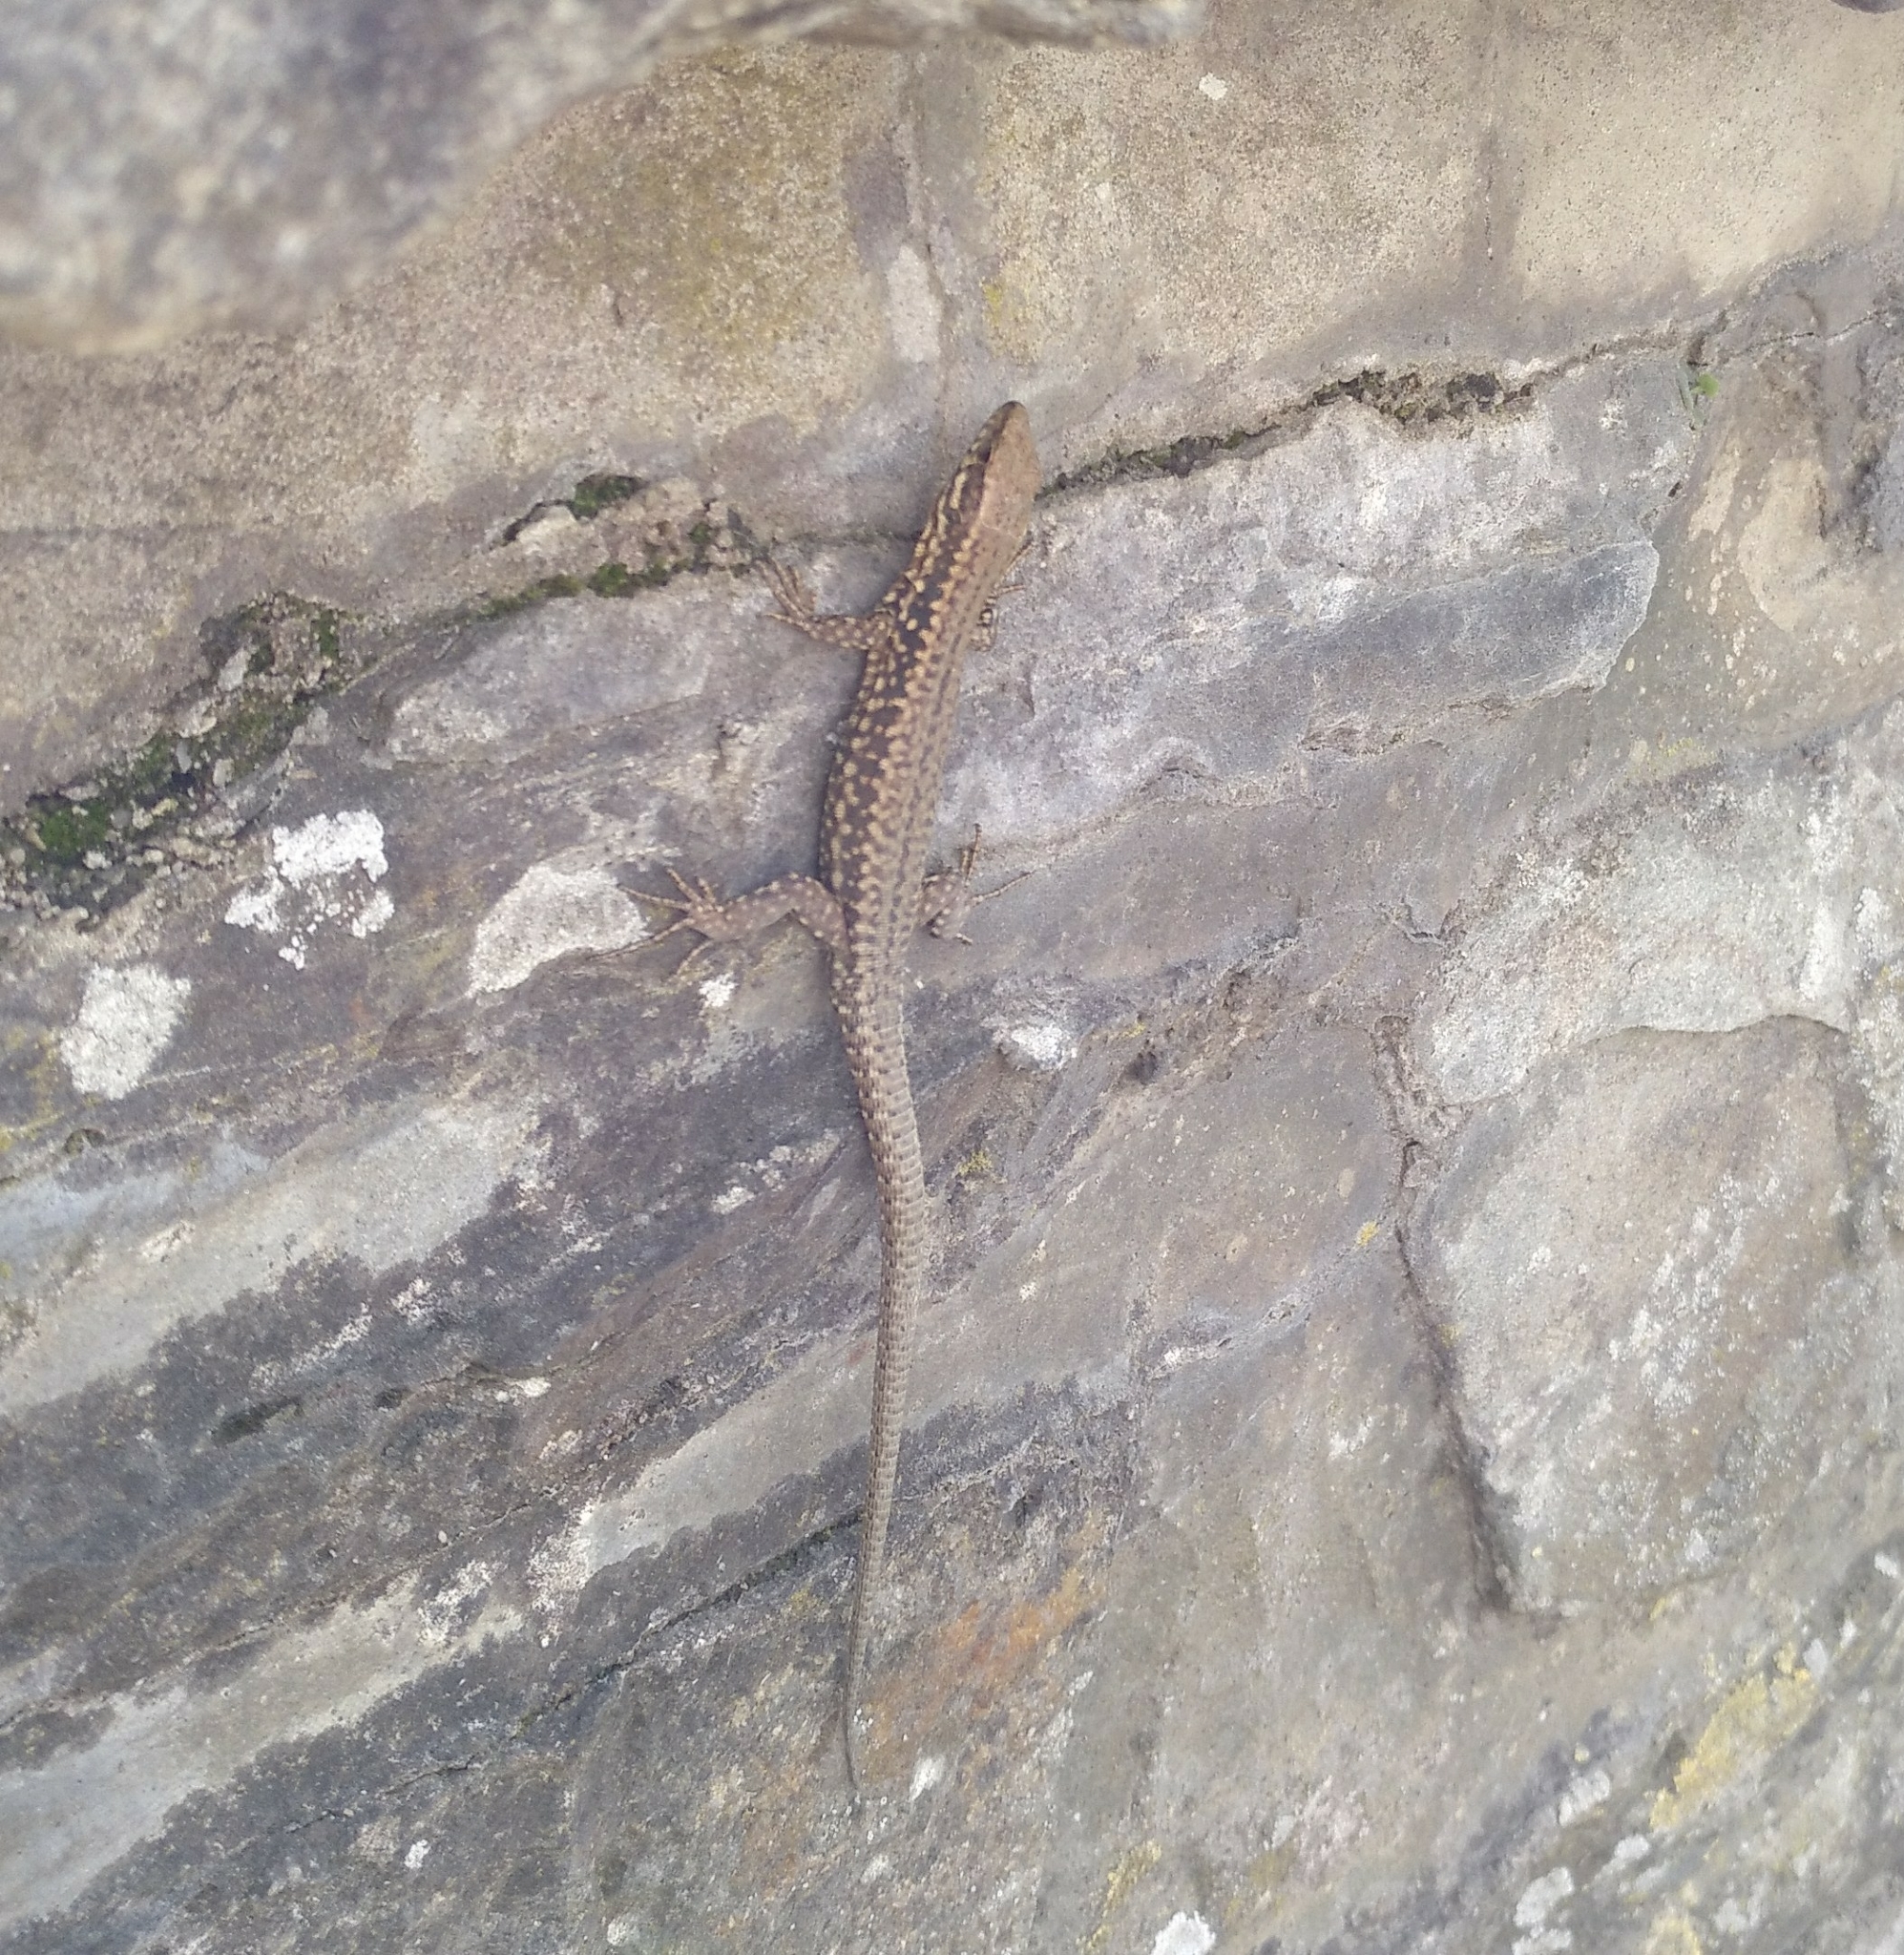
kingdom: Animalia
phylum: Chordata
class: Squamata
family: Lacertidae
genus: Podarcis
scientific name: Podarcis muralis
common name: Common wall lizard
